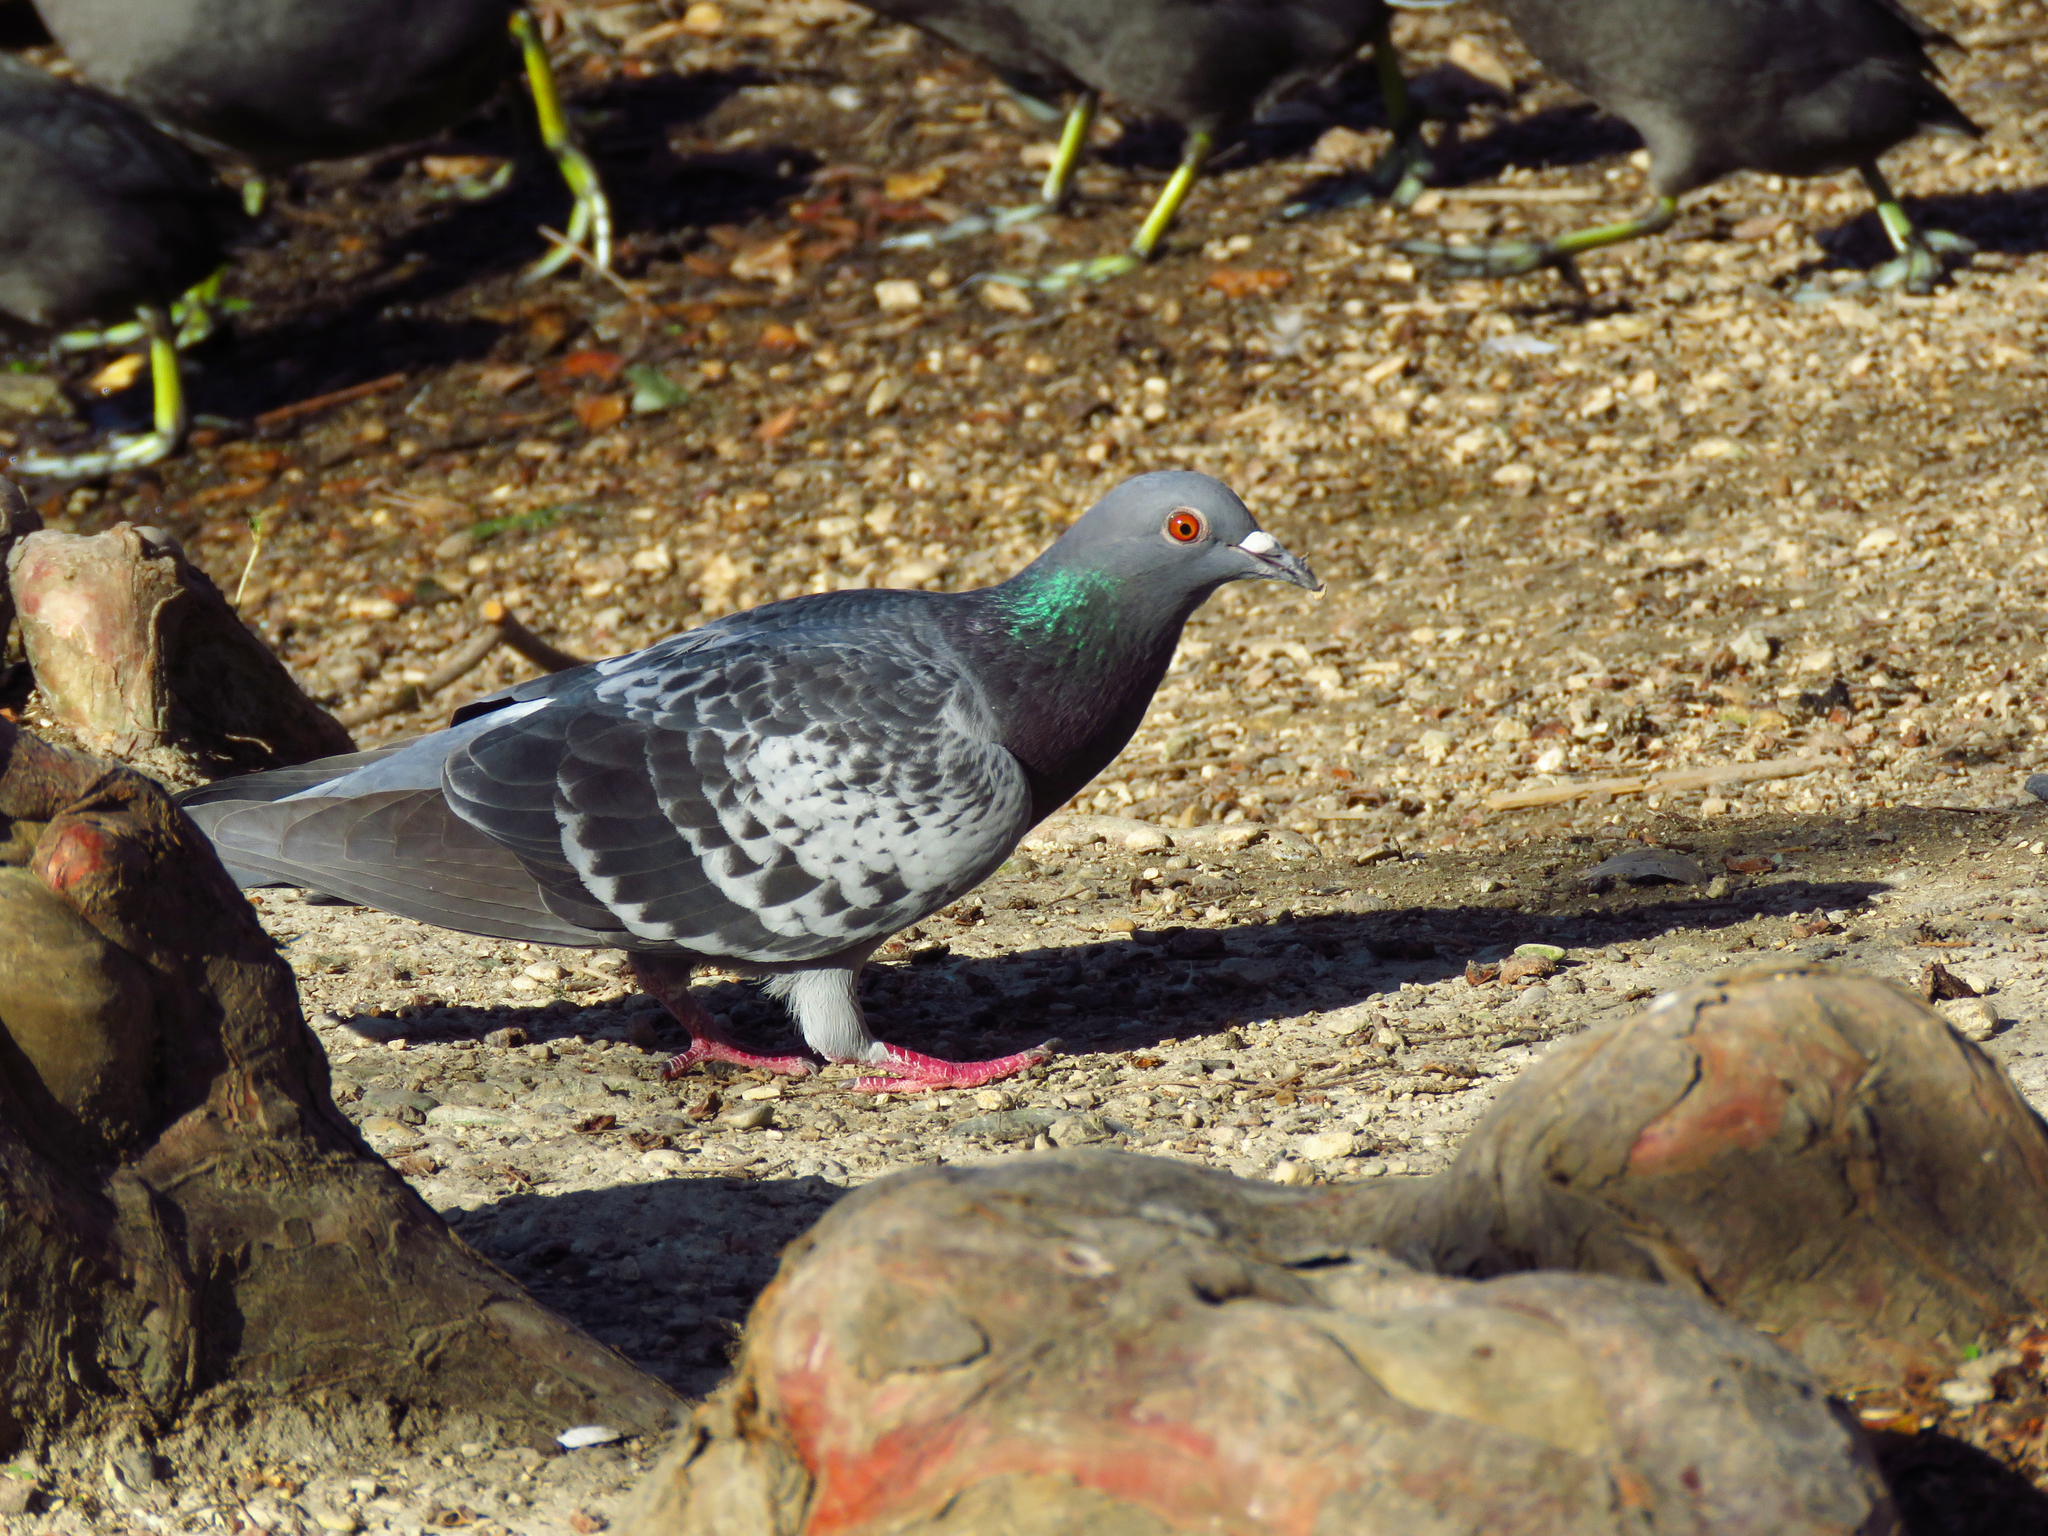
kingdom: Animalia
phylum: Chordata
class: Aves
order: Columbiformes
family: Columbidae
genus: Columba
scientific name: Columba livia
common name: Rock pigeon
